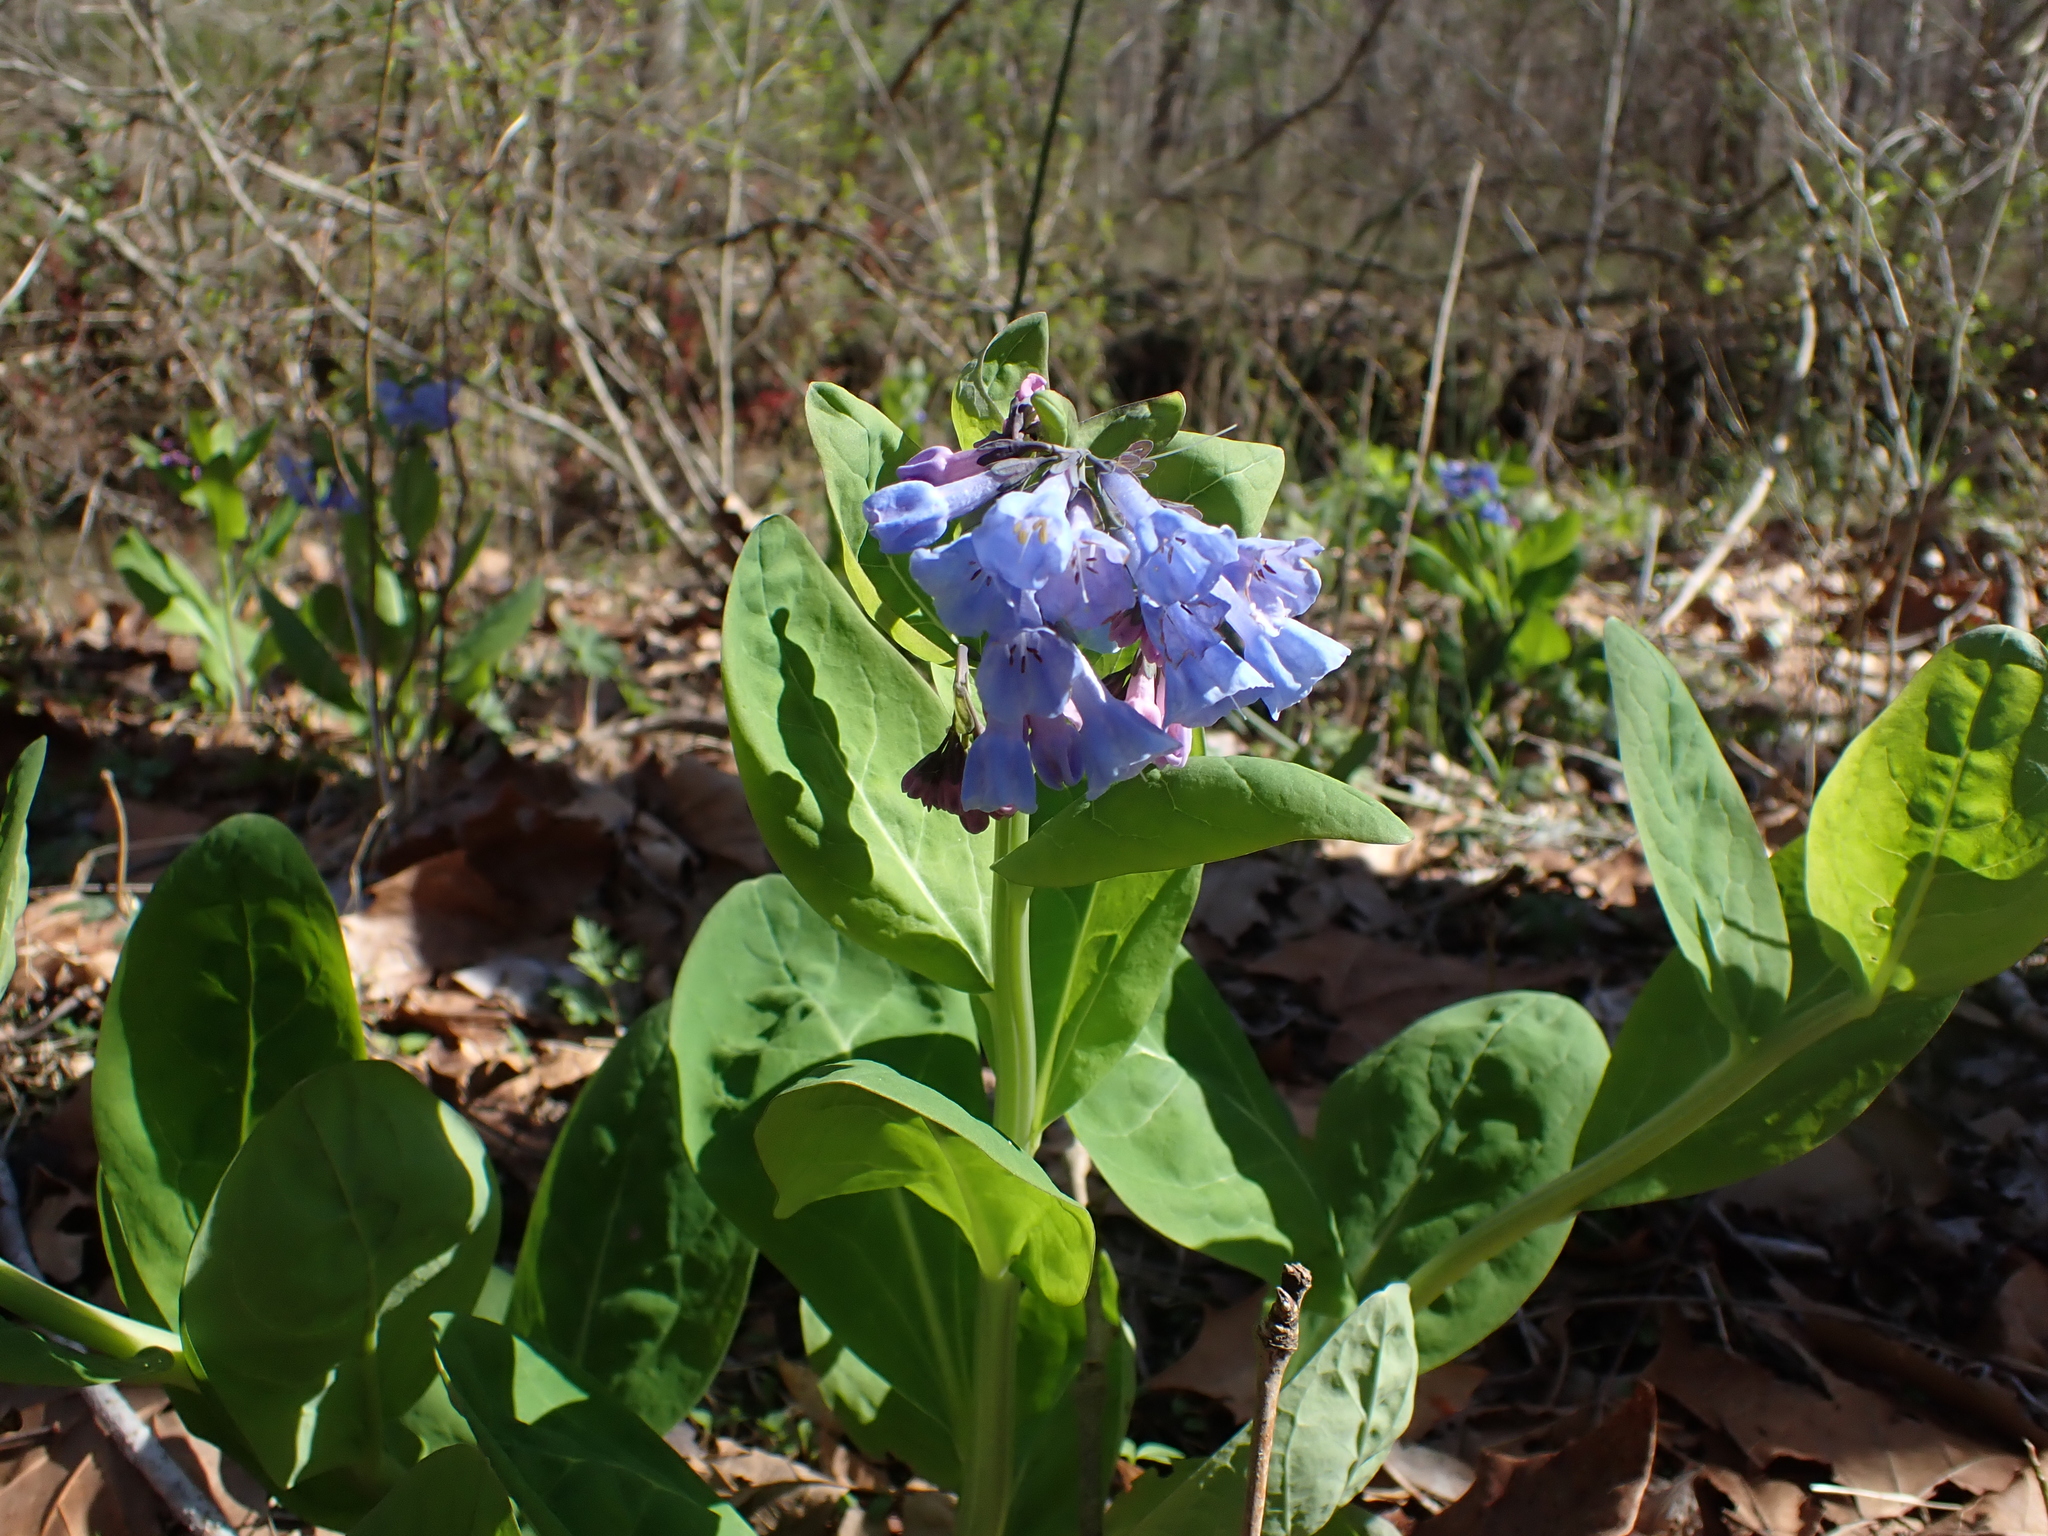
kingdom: Plantae
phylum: Tracheophyta
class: Magnoliopsida
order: Boraginales
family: Boraginaceae
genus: Mertensia
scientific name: Mertensia virginica
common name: Virginia bluebells
